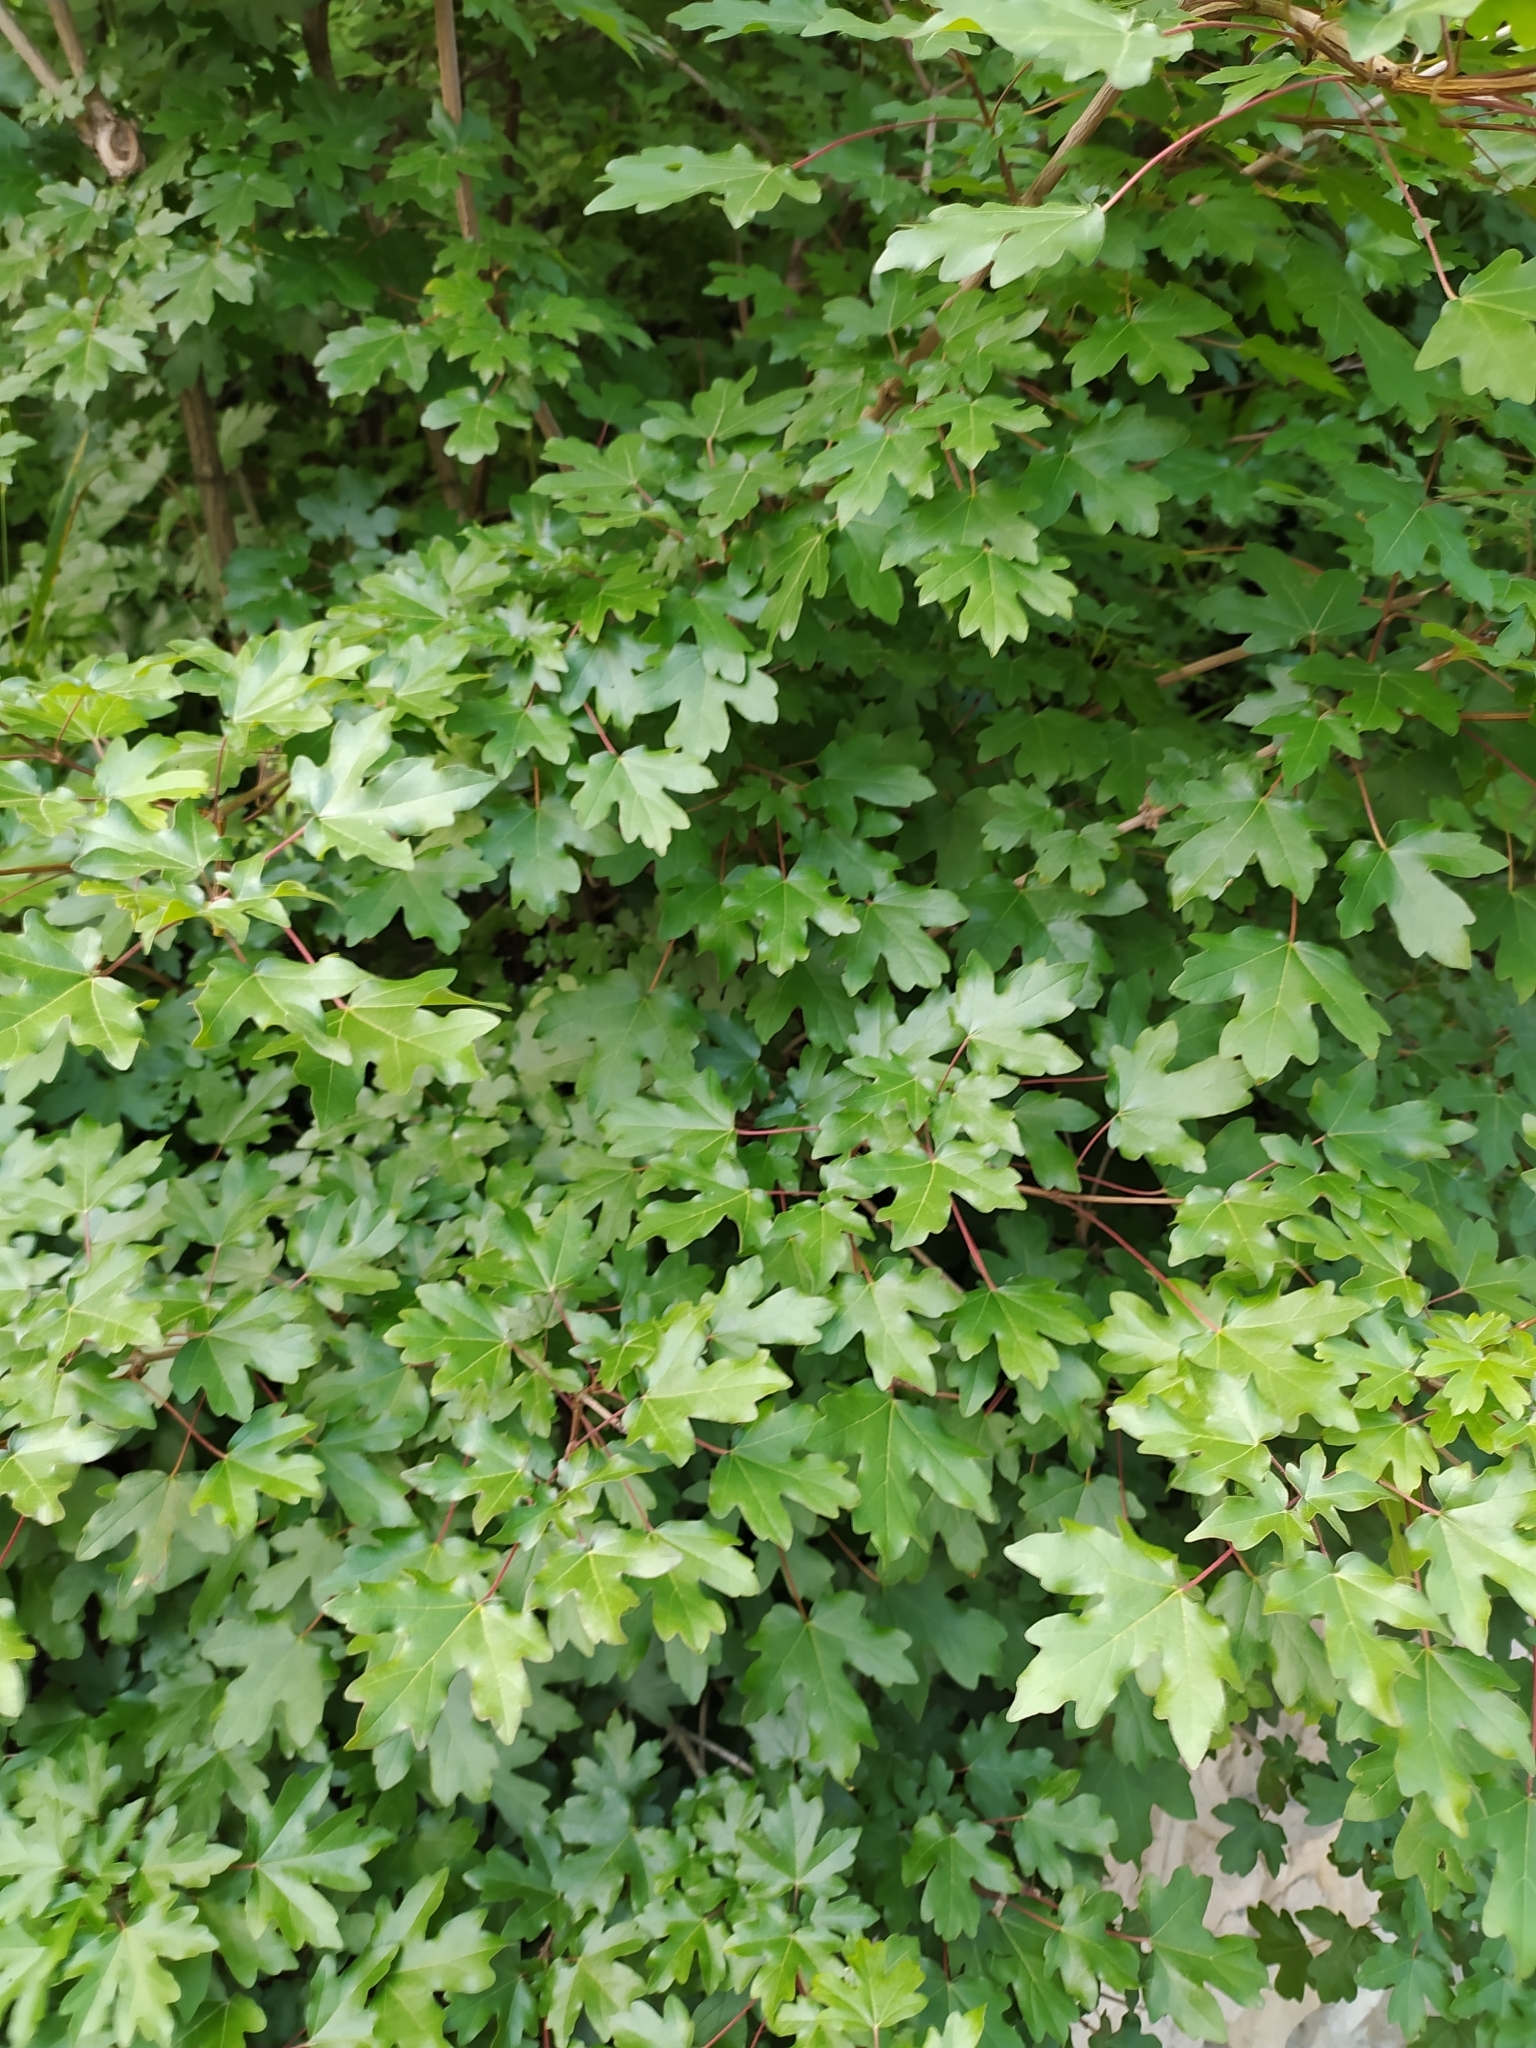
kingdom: Plantae
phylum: Tracheophyta
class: Magnoliopsida
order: Sapindales
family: Sapindaceae
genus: Acer
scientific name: Acer campestre
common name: Field maple
